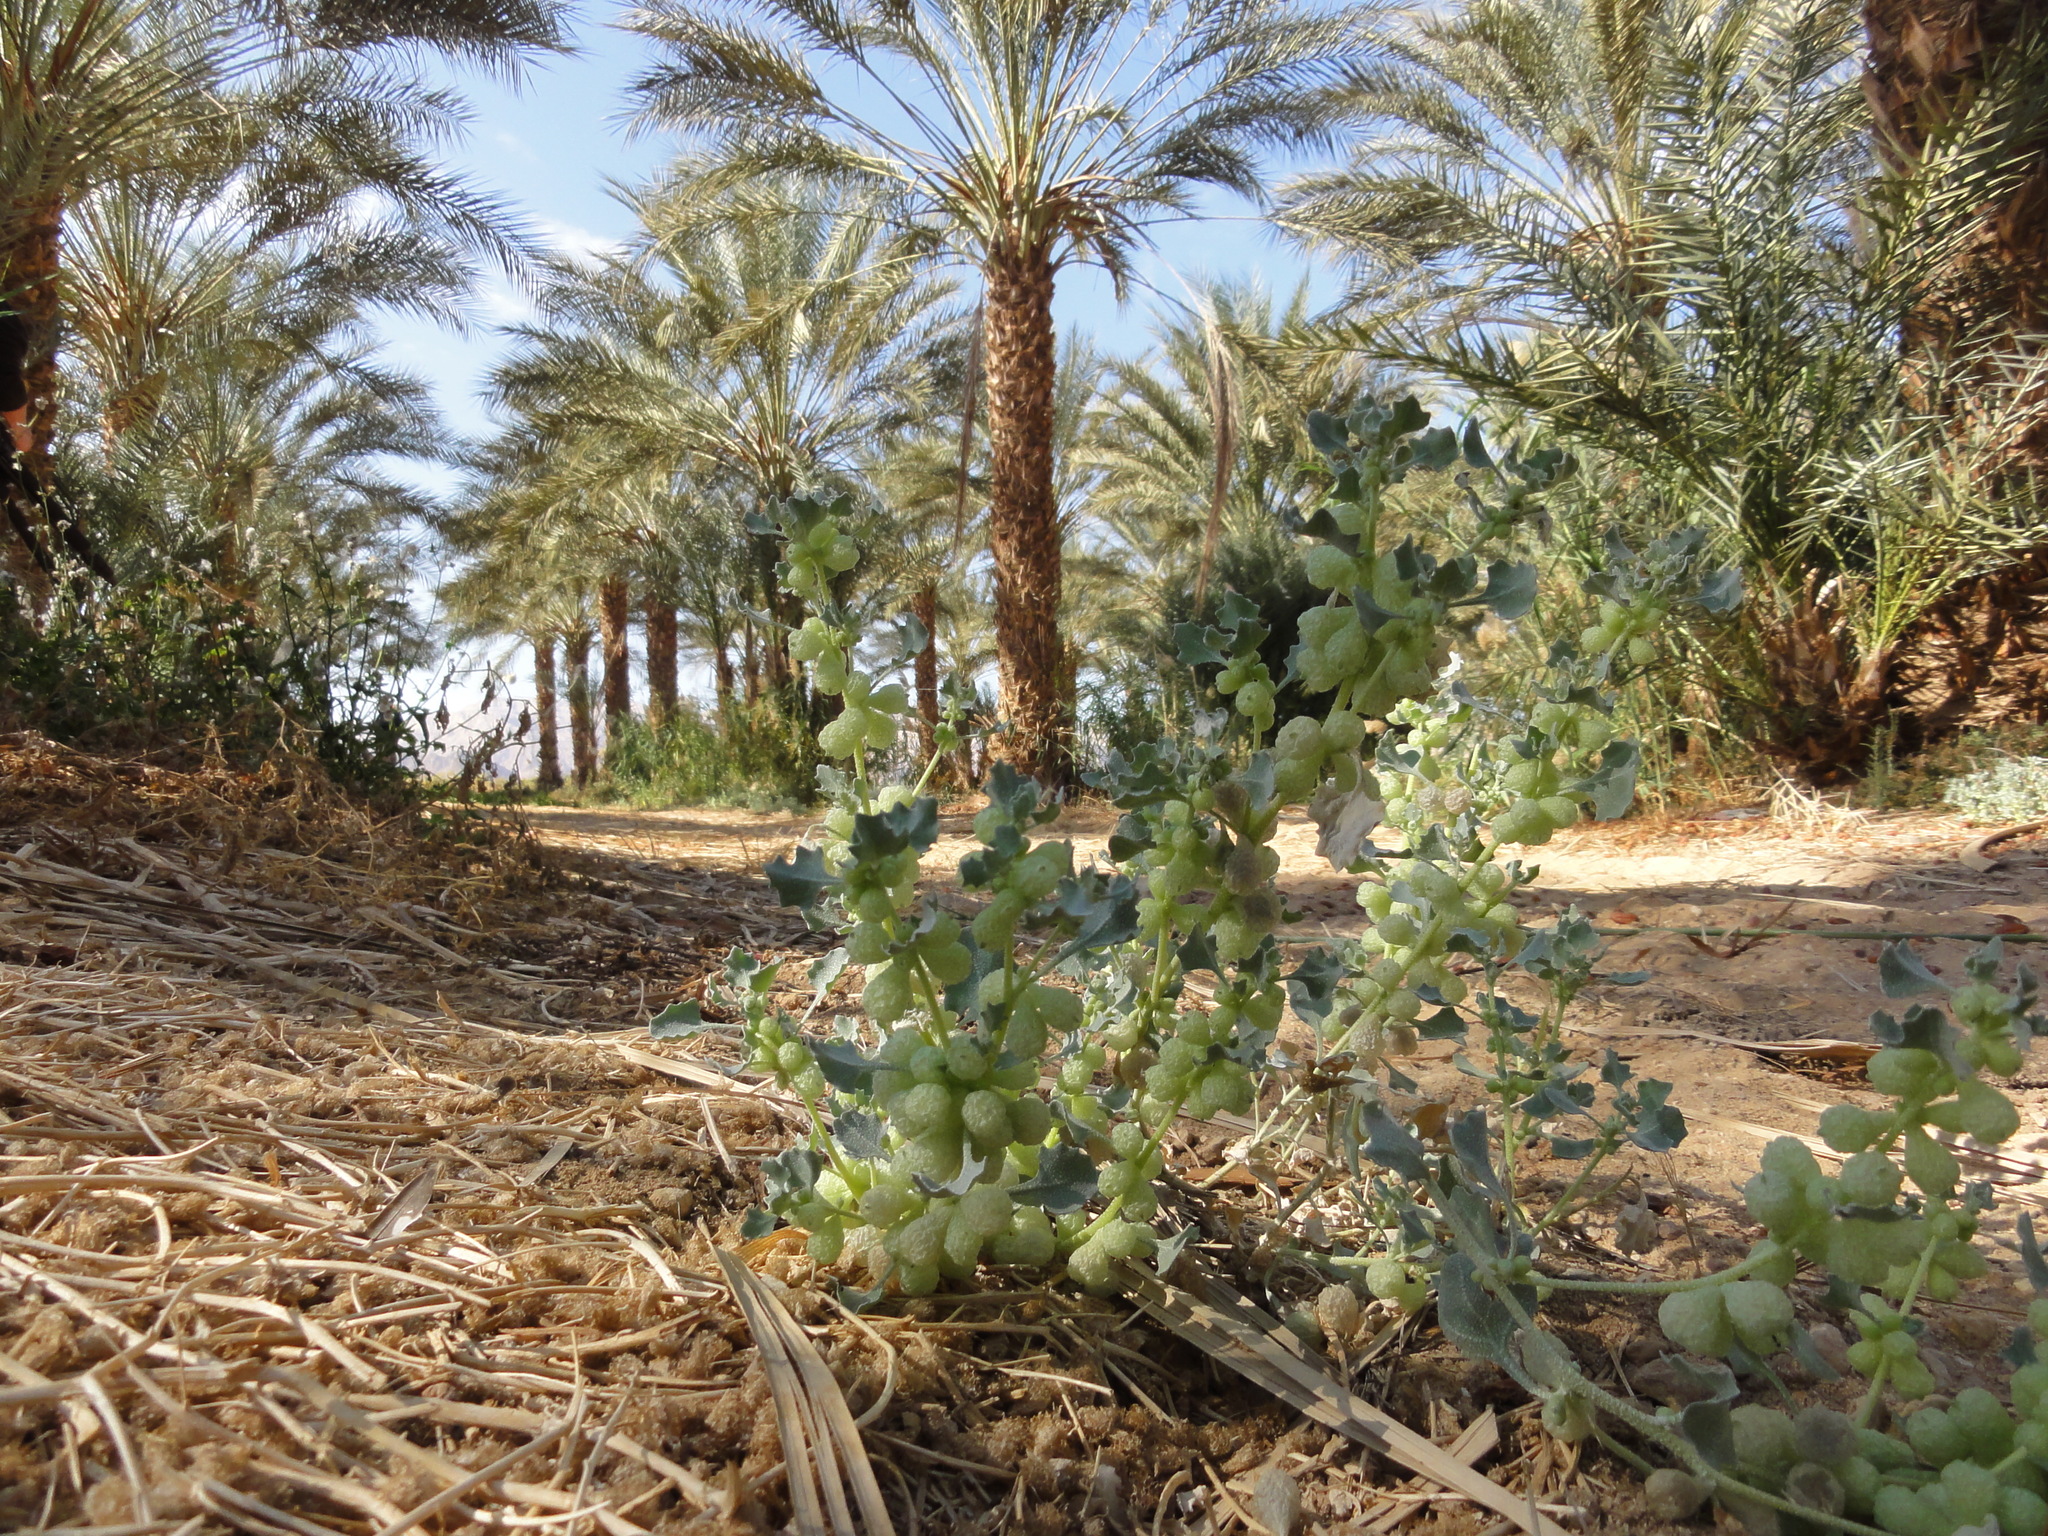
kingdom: Plantae
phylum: Tracheophyta
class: Magnoliopsida
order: Caryophyllales
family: Amaranthaceae
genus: Atriplex
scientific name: Atriplex holocarpa
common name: Pop saltbush
